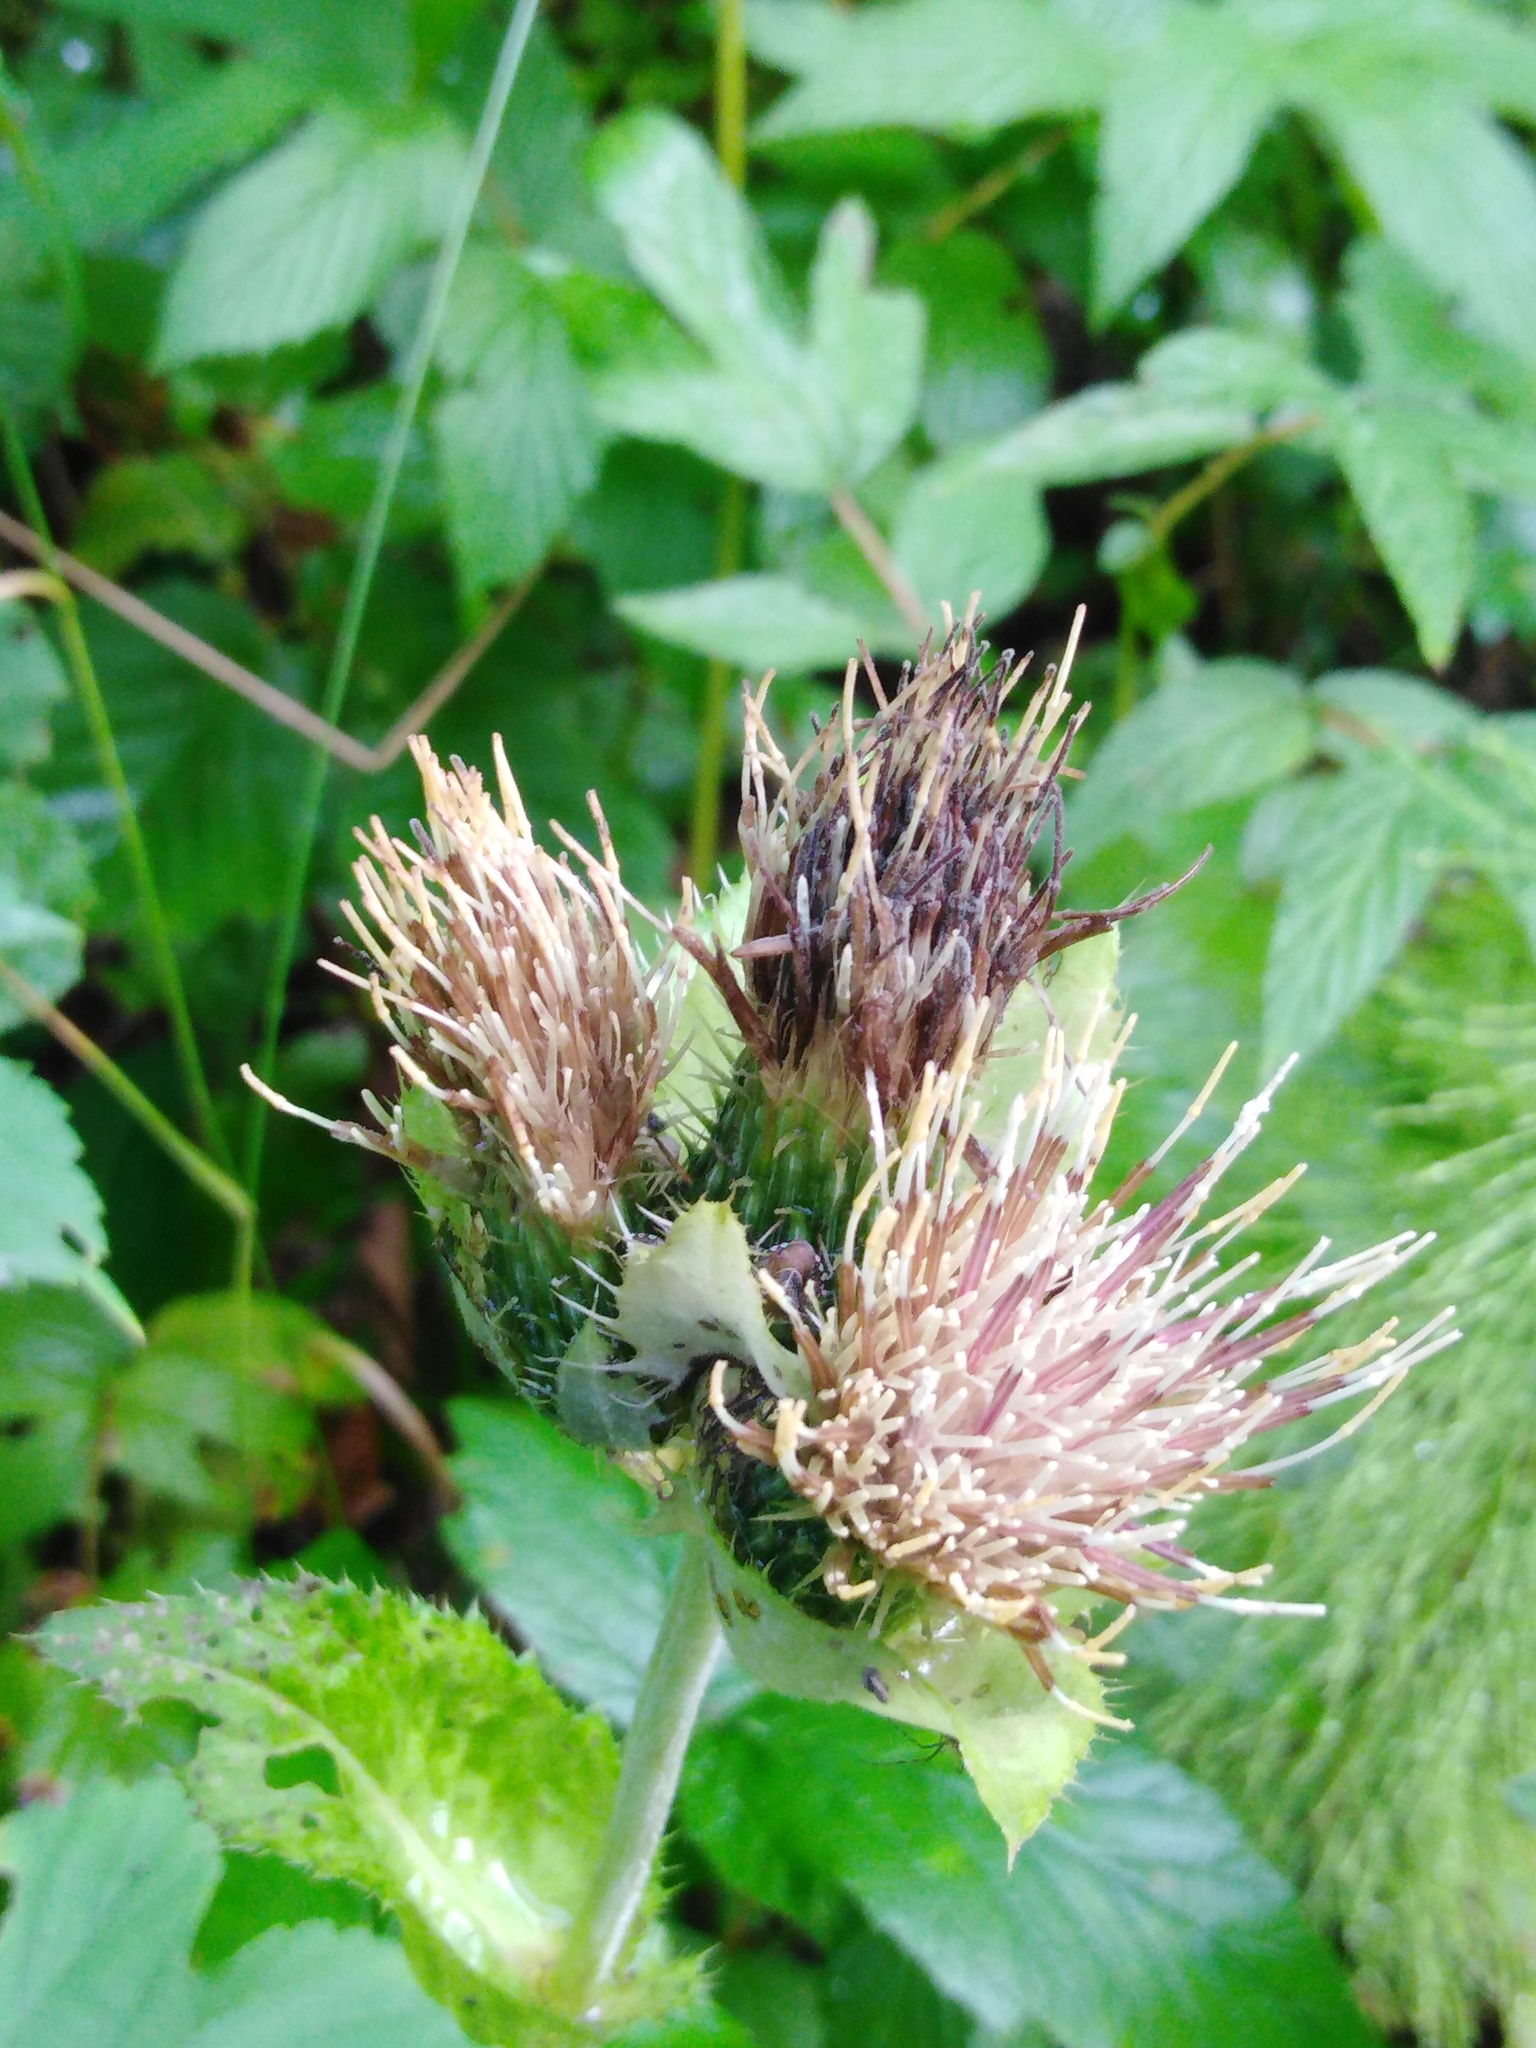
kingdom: Plantae
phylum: Tracheophyta
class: Magnoliopsida
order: Asterales
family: Asteraceae
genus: Cirsium
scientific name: Cirsium oleraceum
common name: Cabbage thistle
